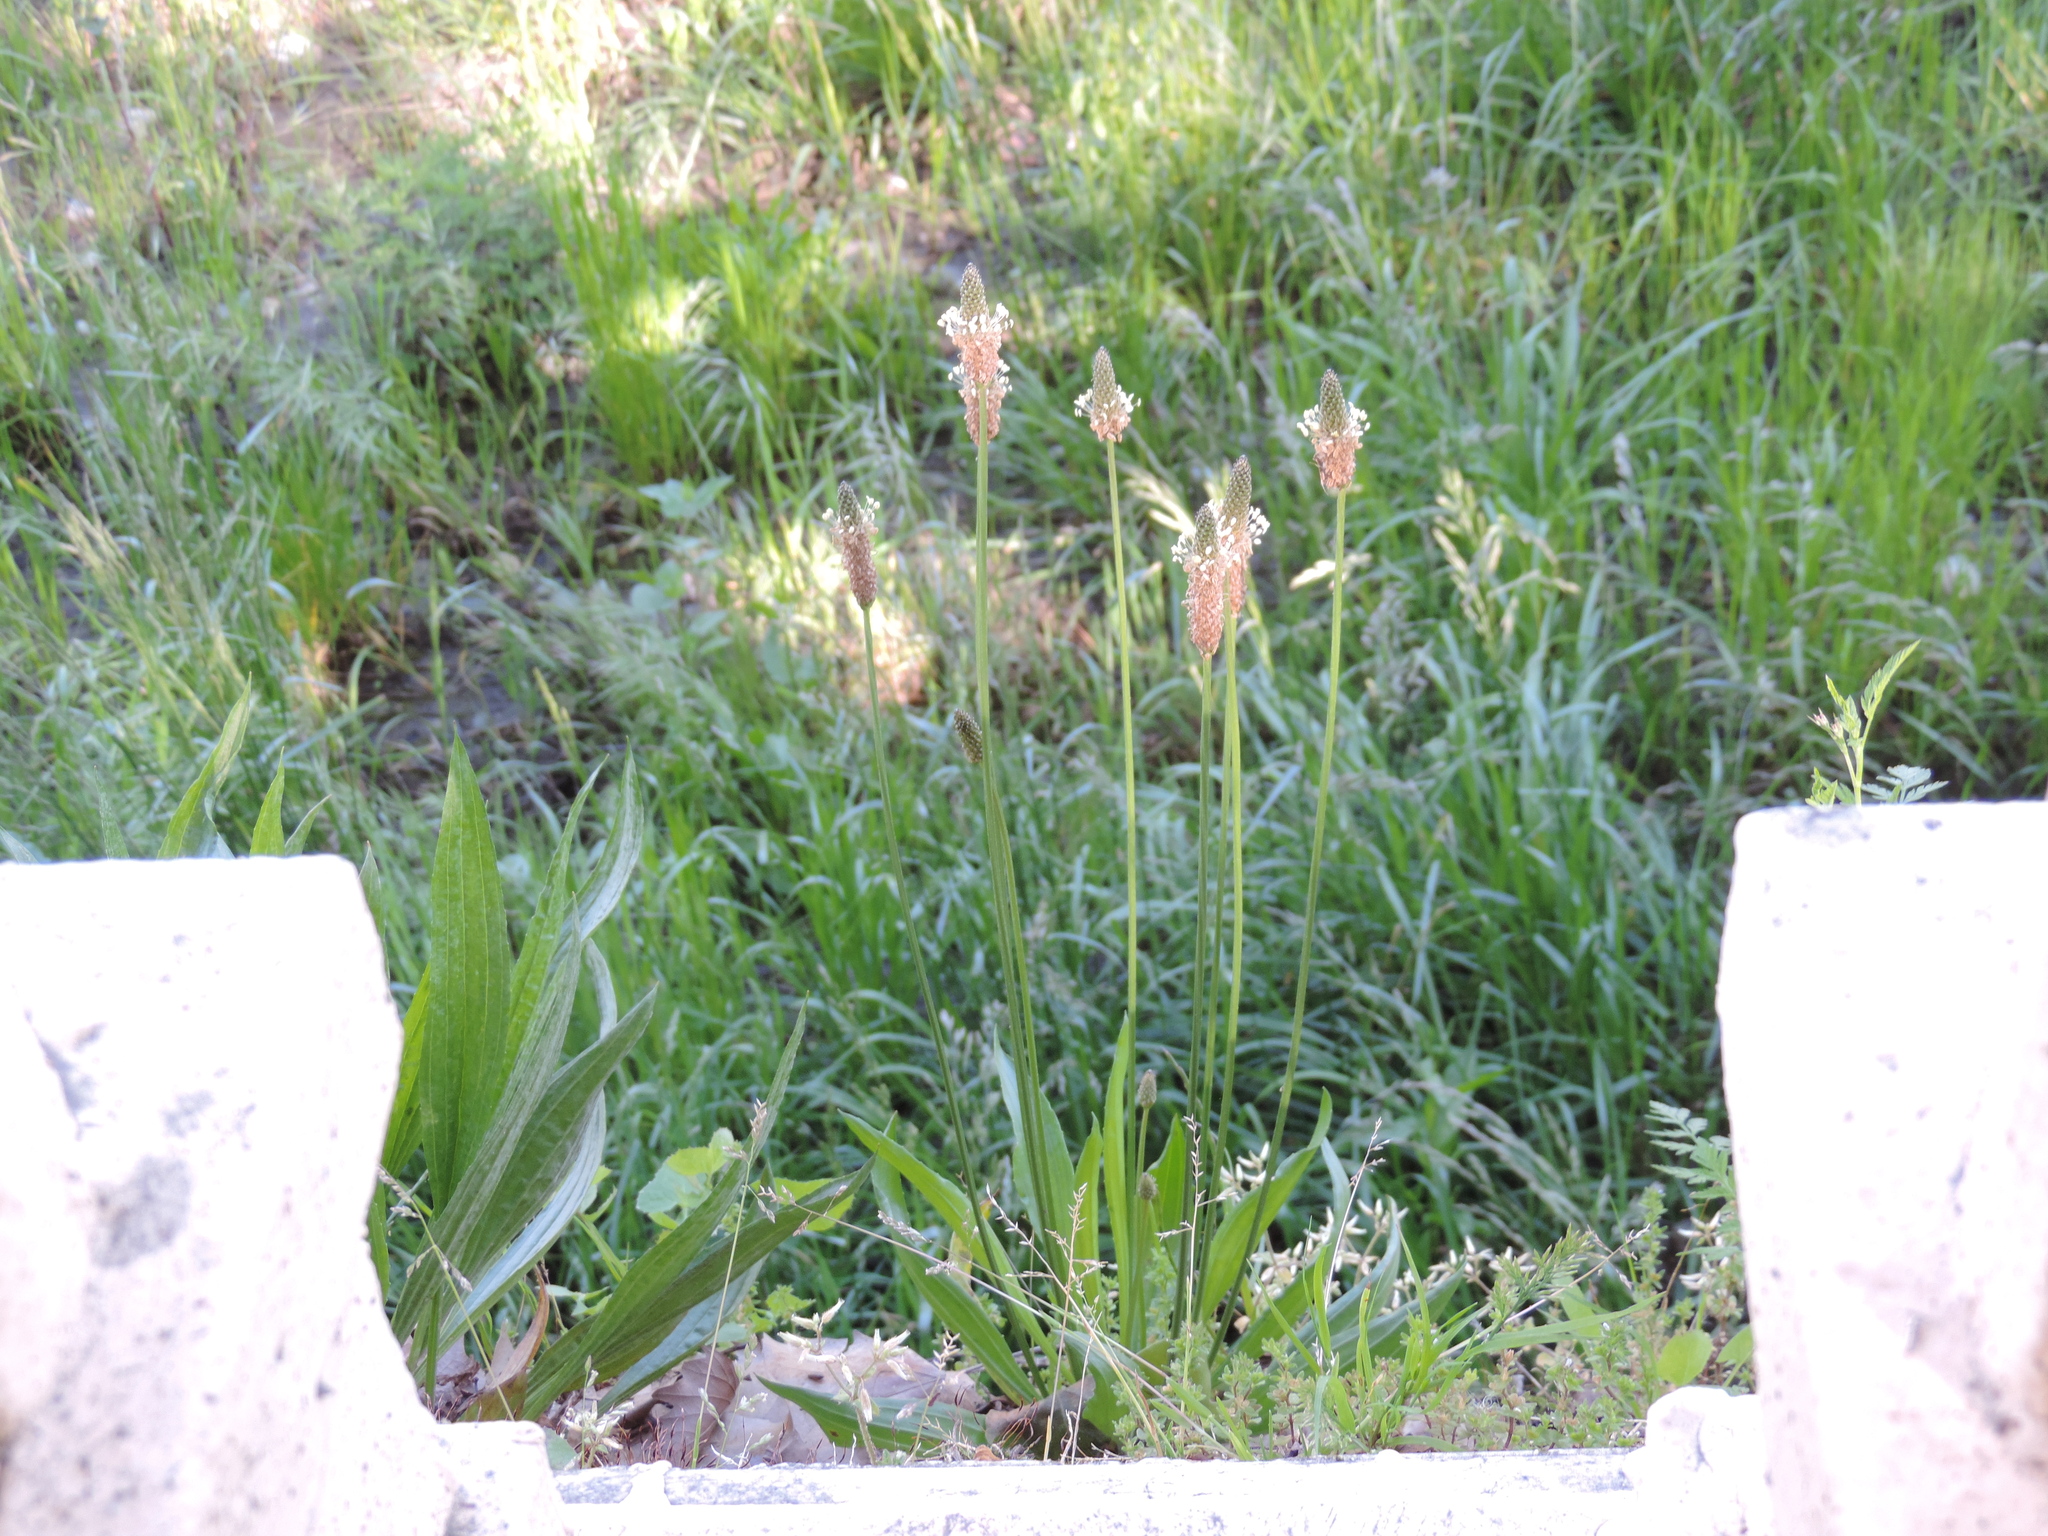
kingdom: Plantae
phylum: Tracheophyta
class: Magnoliopsida
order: Lamiales
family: Plantaginaceae
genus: Plantago
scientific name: Plantago lanceolata
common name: Ribwort plantain
